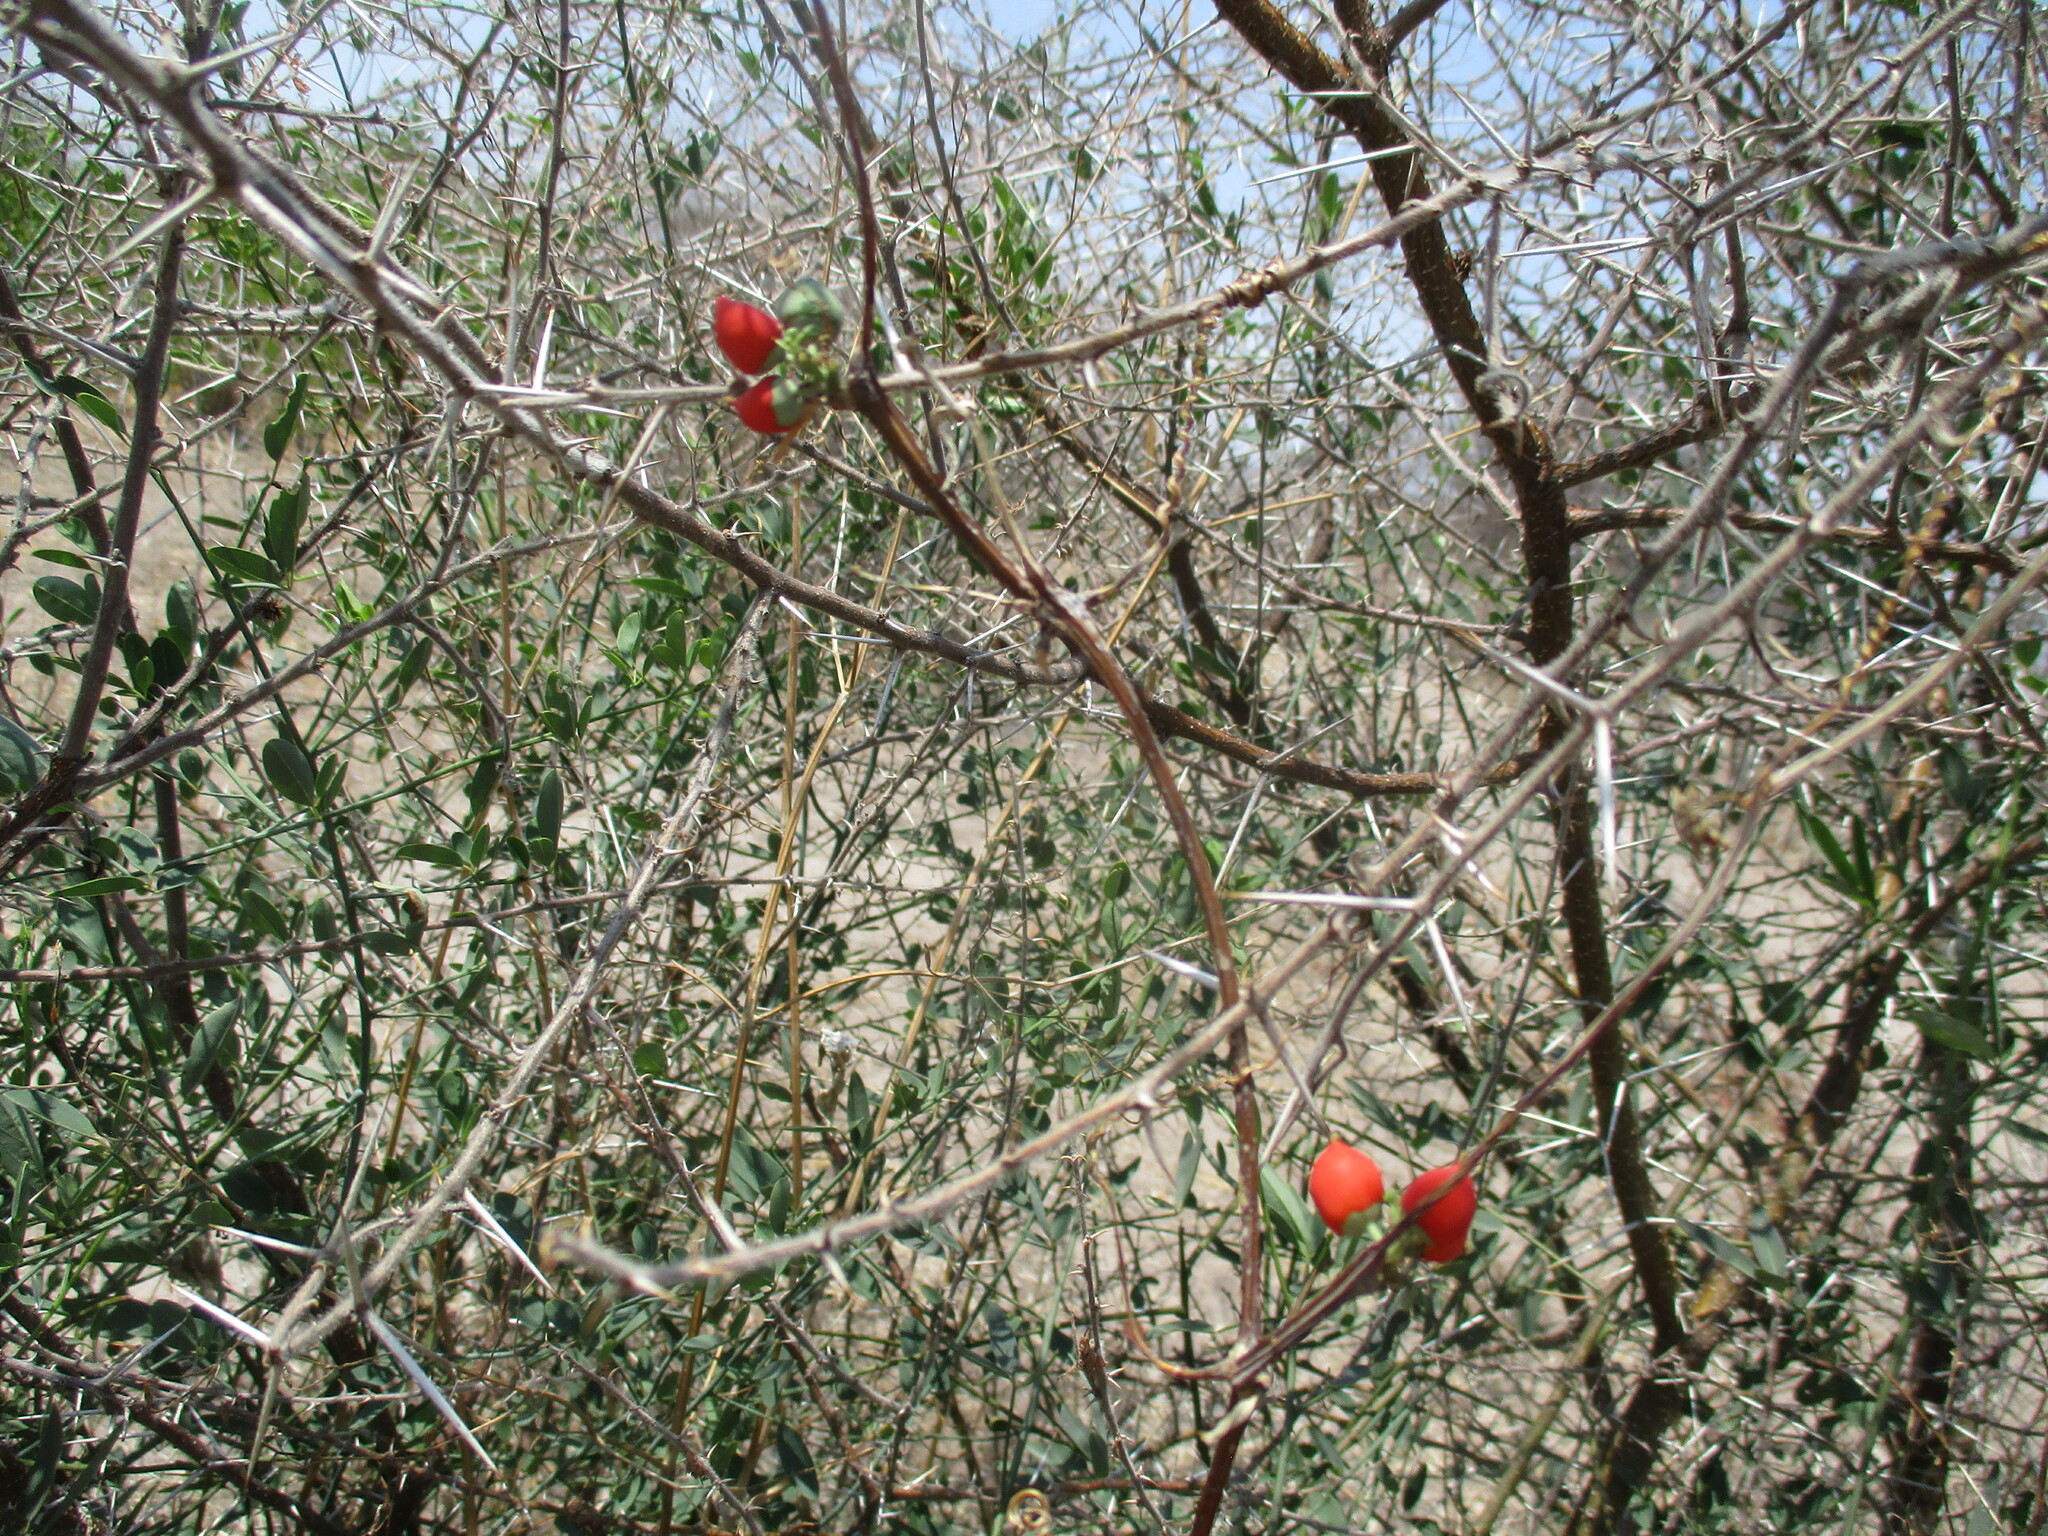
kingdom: Plantae
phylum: Tracheophyta
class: Magnoliopsida
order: Cucurbitales
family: Cucurbitaceae
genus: Corallocarpus
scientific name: Corallocarpus bainesii
